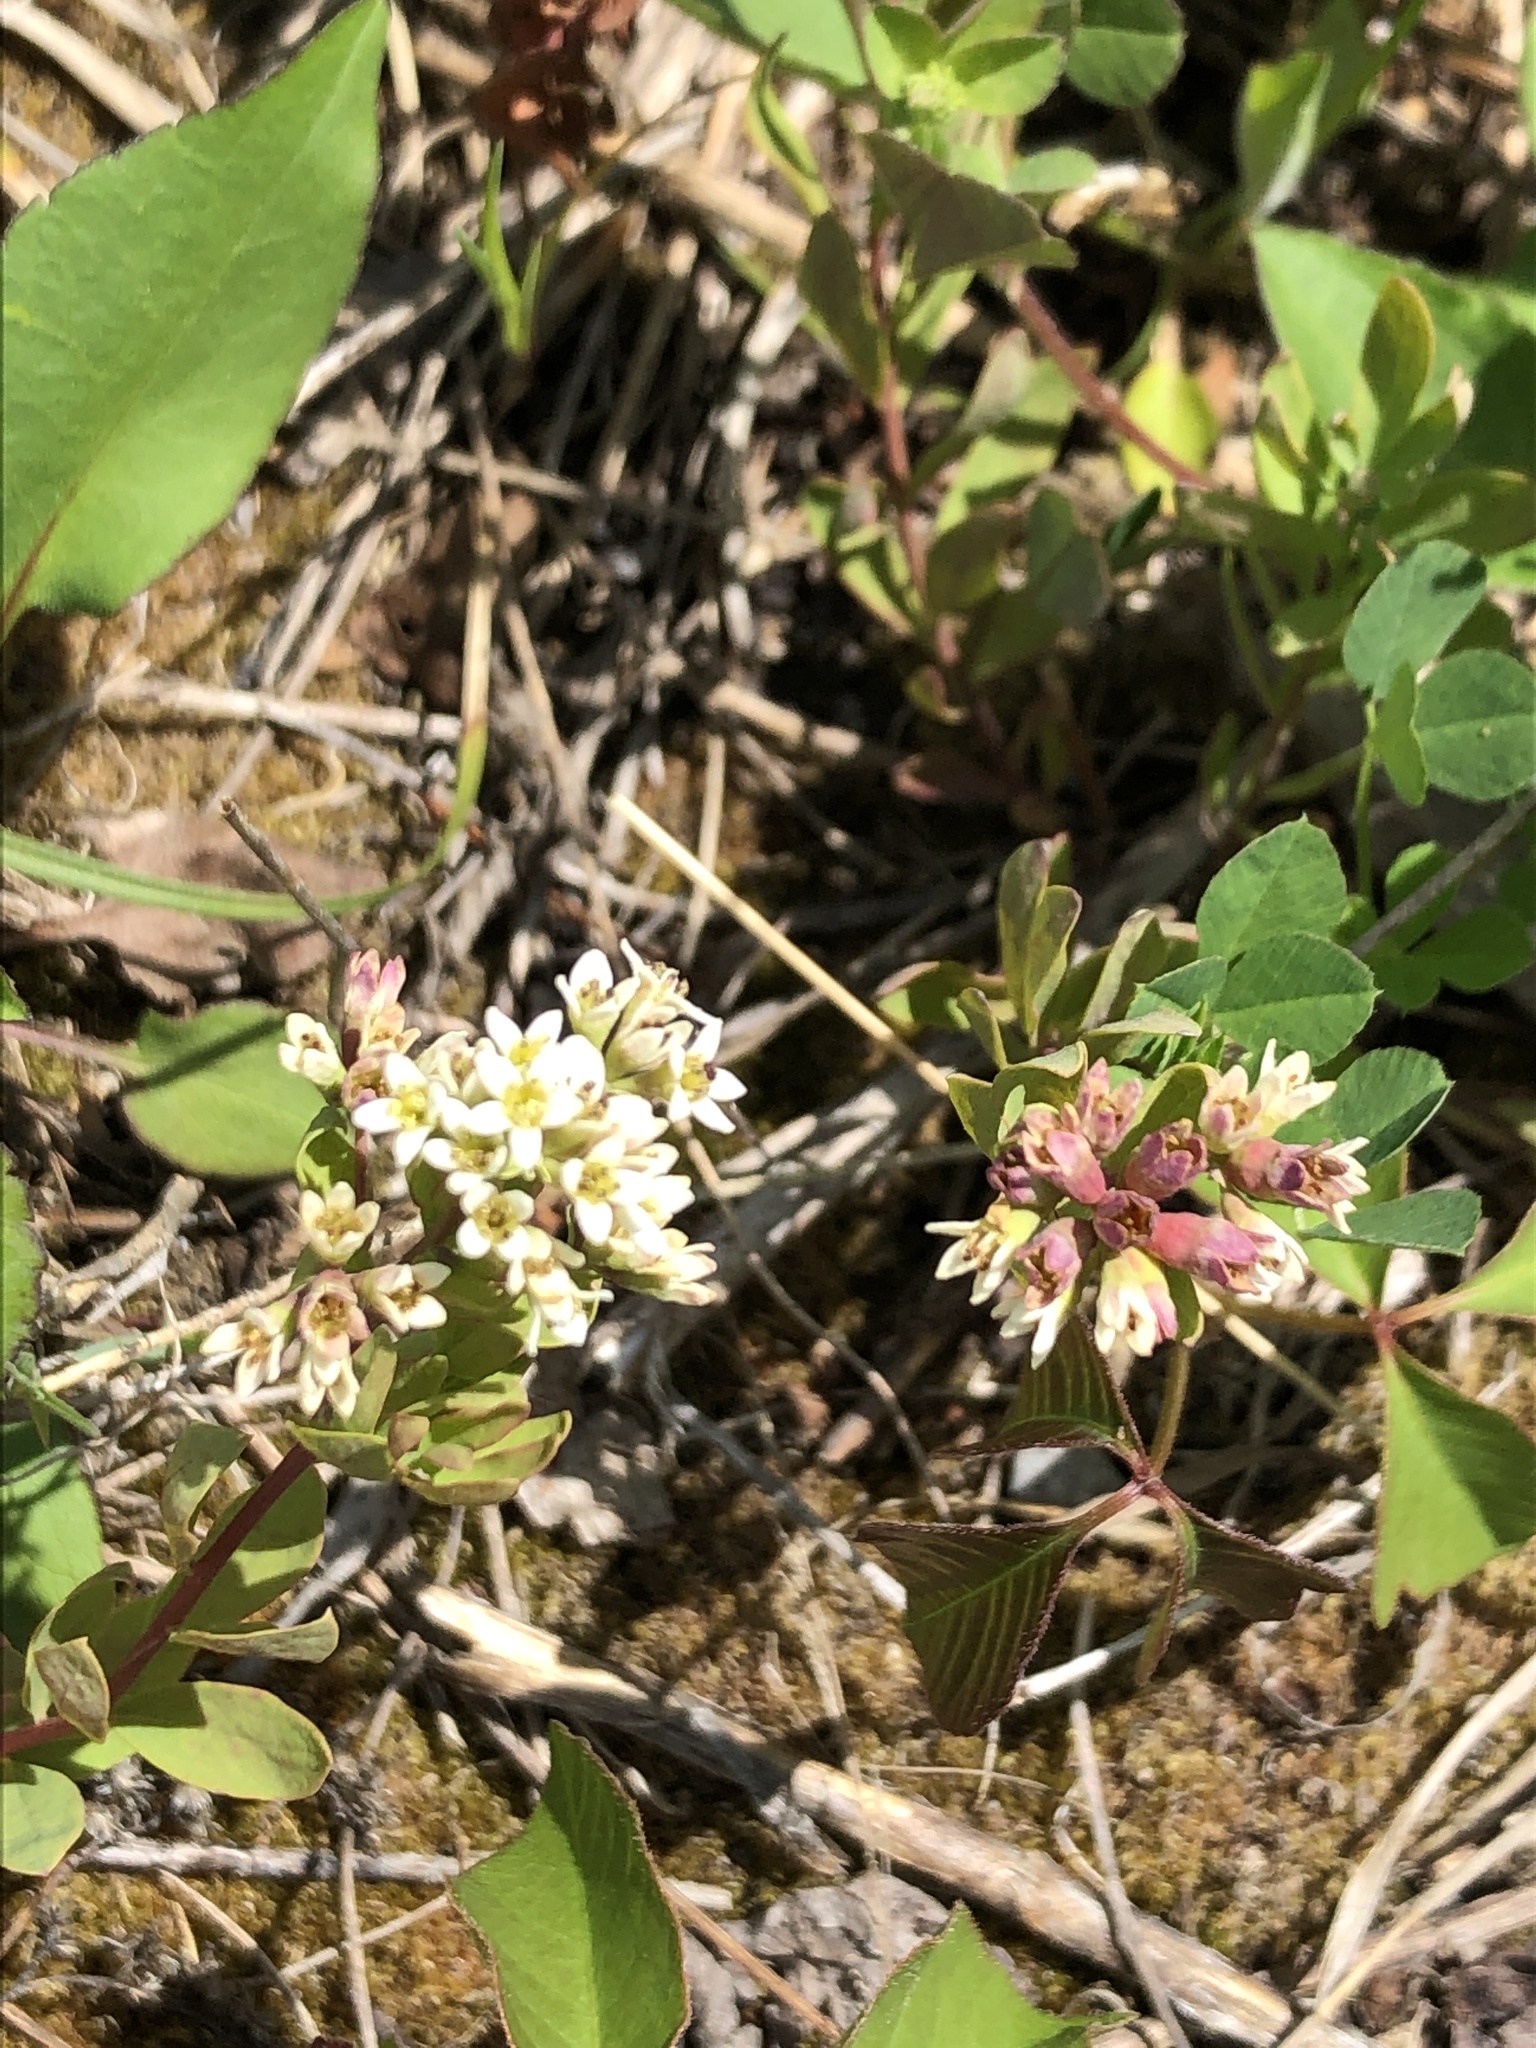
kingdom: Plantae
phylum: Tracheophyta
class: Magnoliopsida
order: Santalales
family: Comandraceae
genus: Comandra
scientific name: Comandra umbellata
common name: Bastard toadflax
